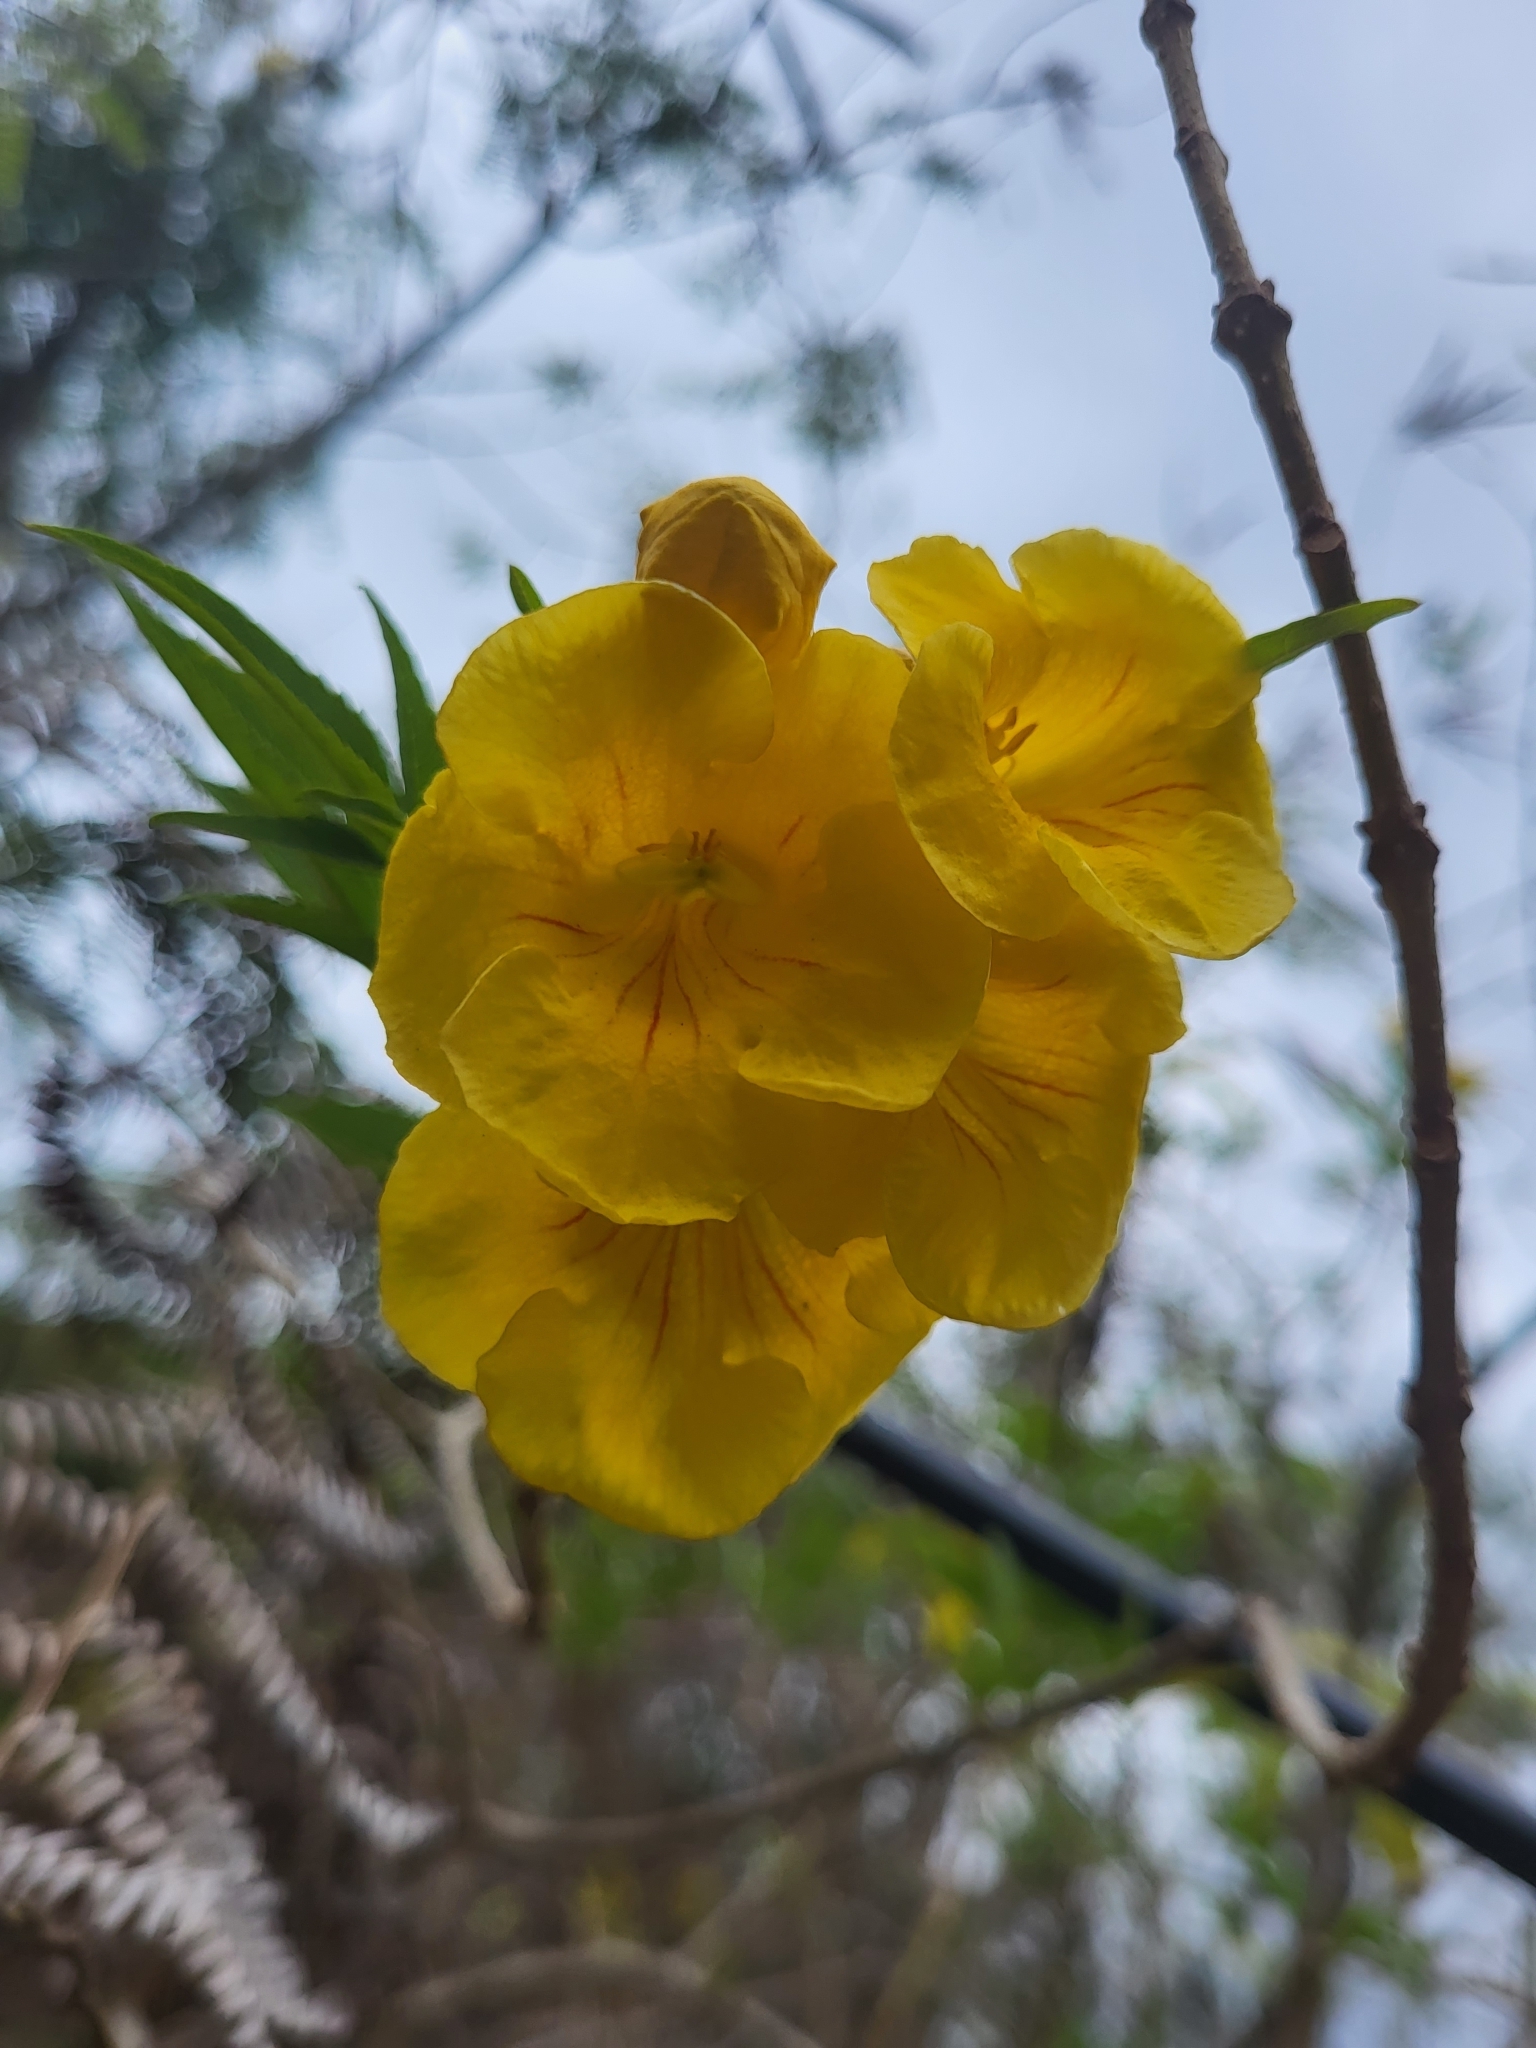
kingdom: Plantae
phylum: Tracheophyta
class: Magnoliopsida
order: Lamiales
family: Bignoniaceae
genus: Tecoma
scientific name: Tecoma stans
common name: Yellow trumpetbush
